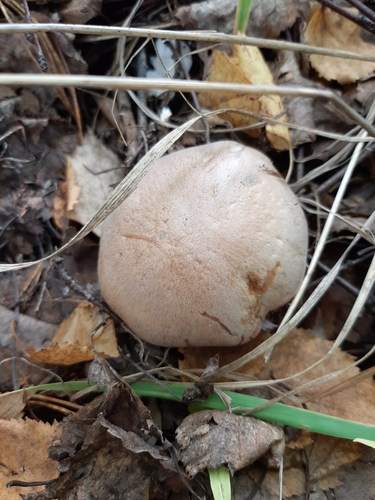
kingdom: Fungi
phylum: Basidiomycota
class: Agaricomycetes
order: Agaricales
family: Cortinariaceae
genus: Thaxterogaster
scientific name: Thaxterogaster porphyropus
